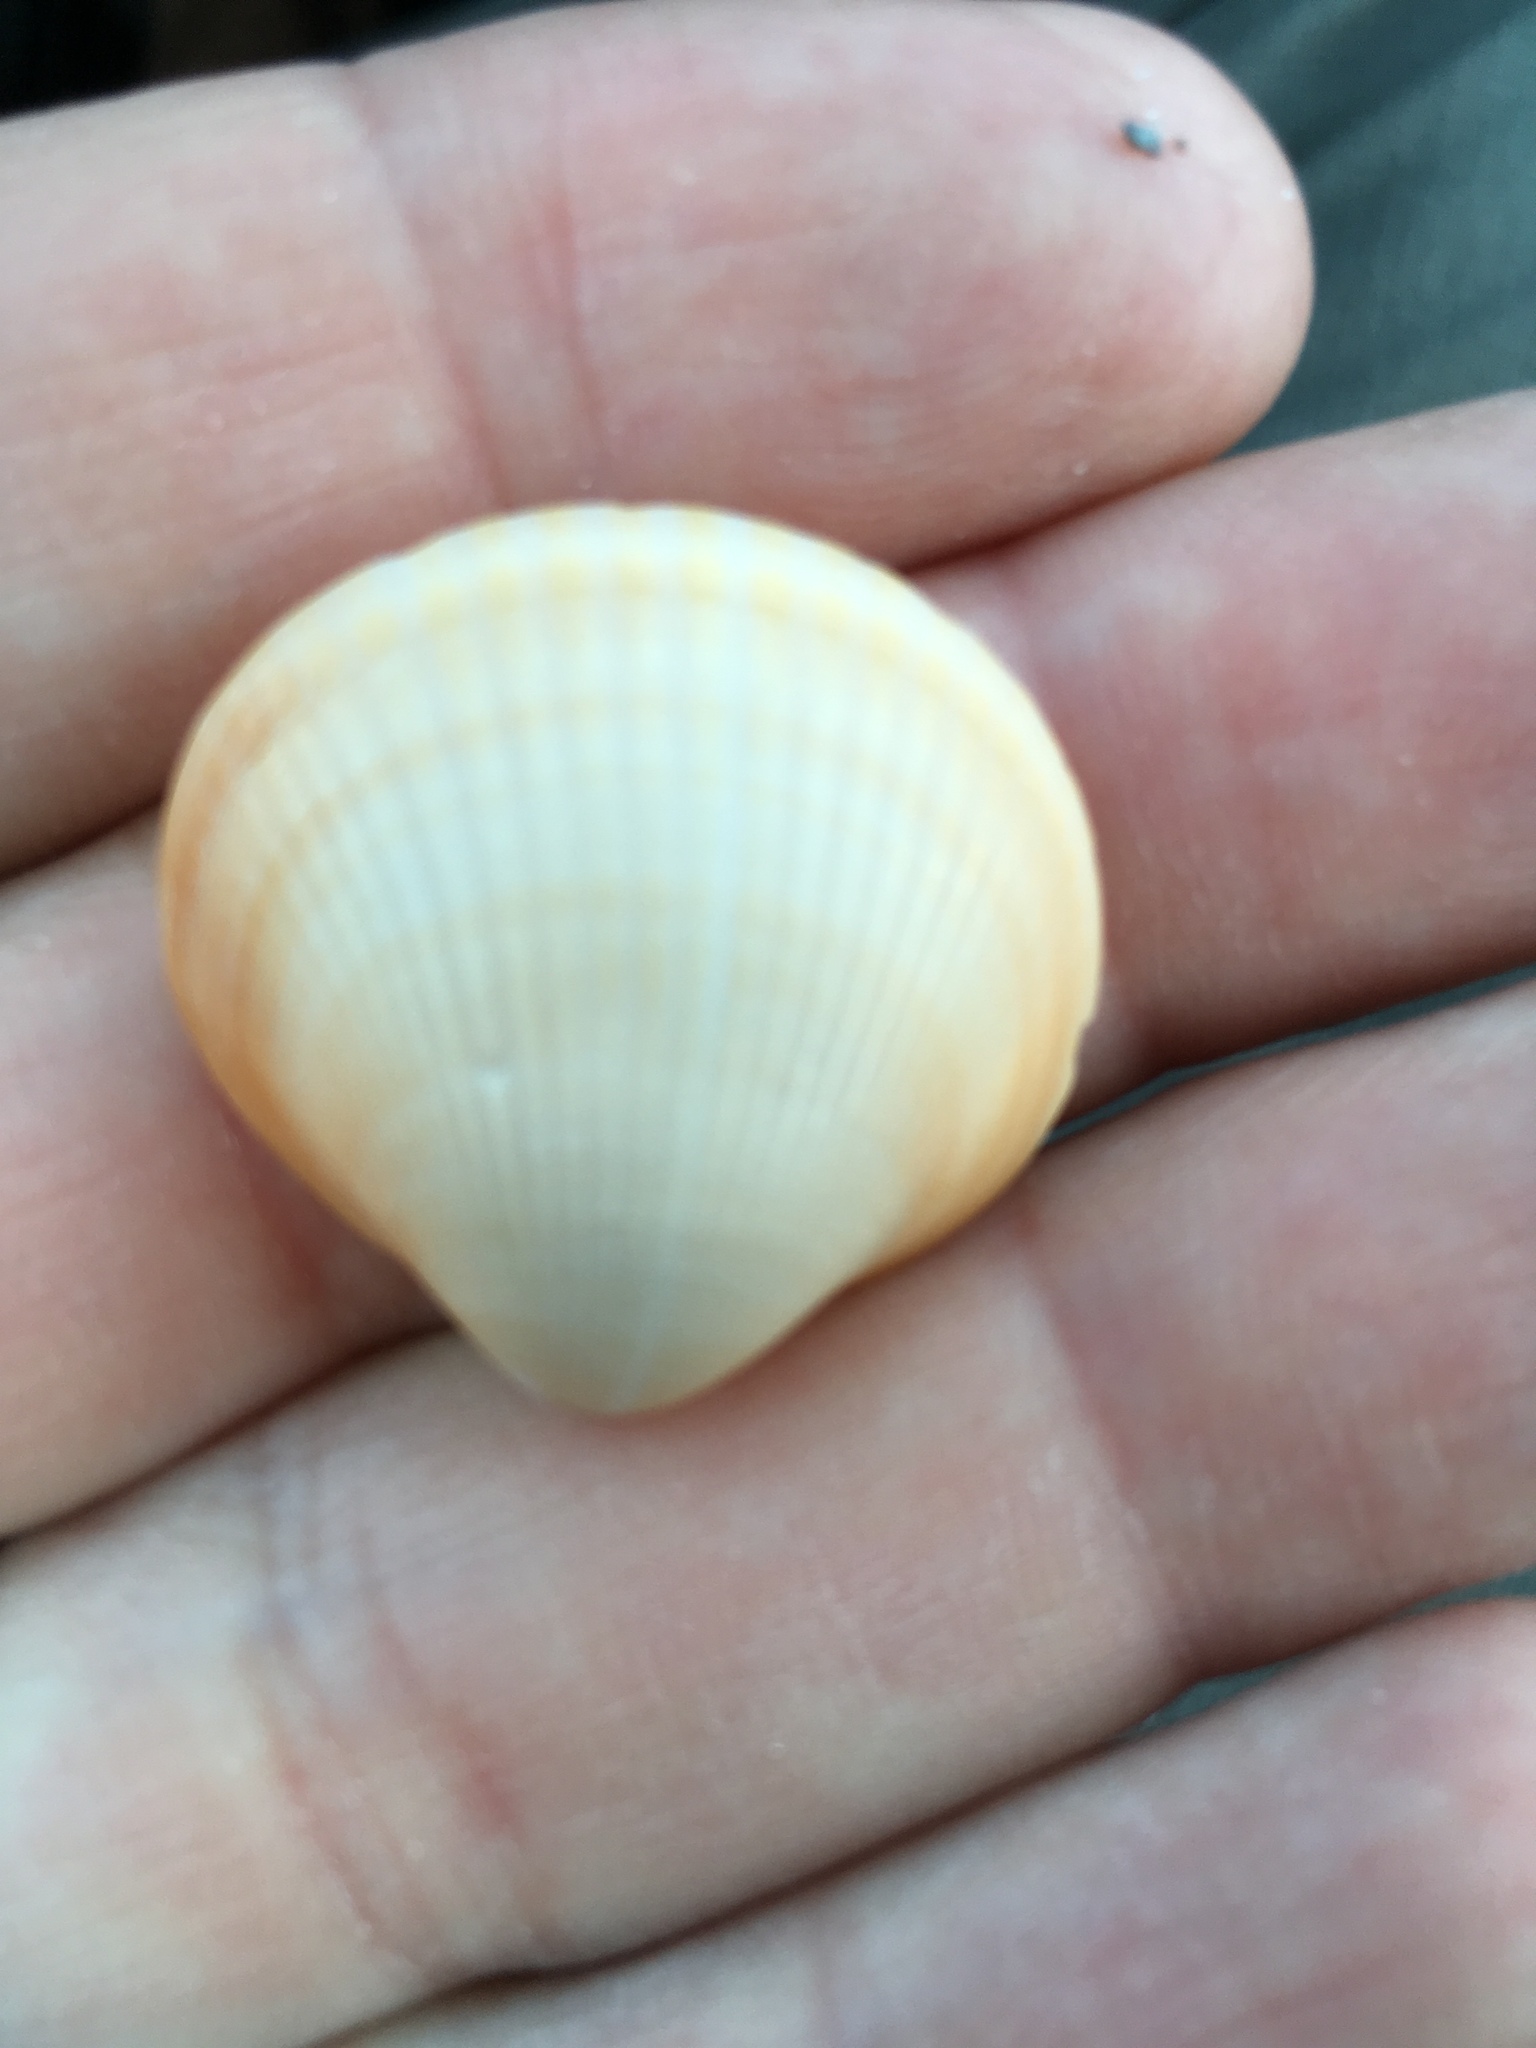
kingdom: Animalia
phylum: Mollusca
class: Bivalvia
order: Arcida
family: Glycymerididae
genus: Glycymeris
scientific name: Glycymeris spectralis
